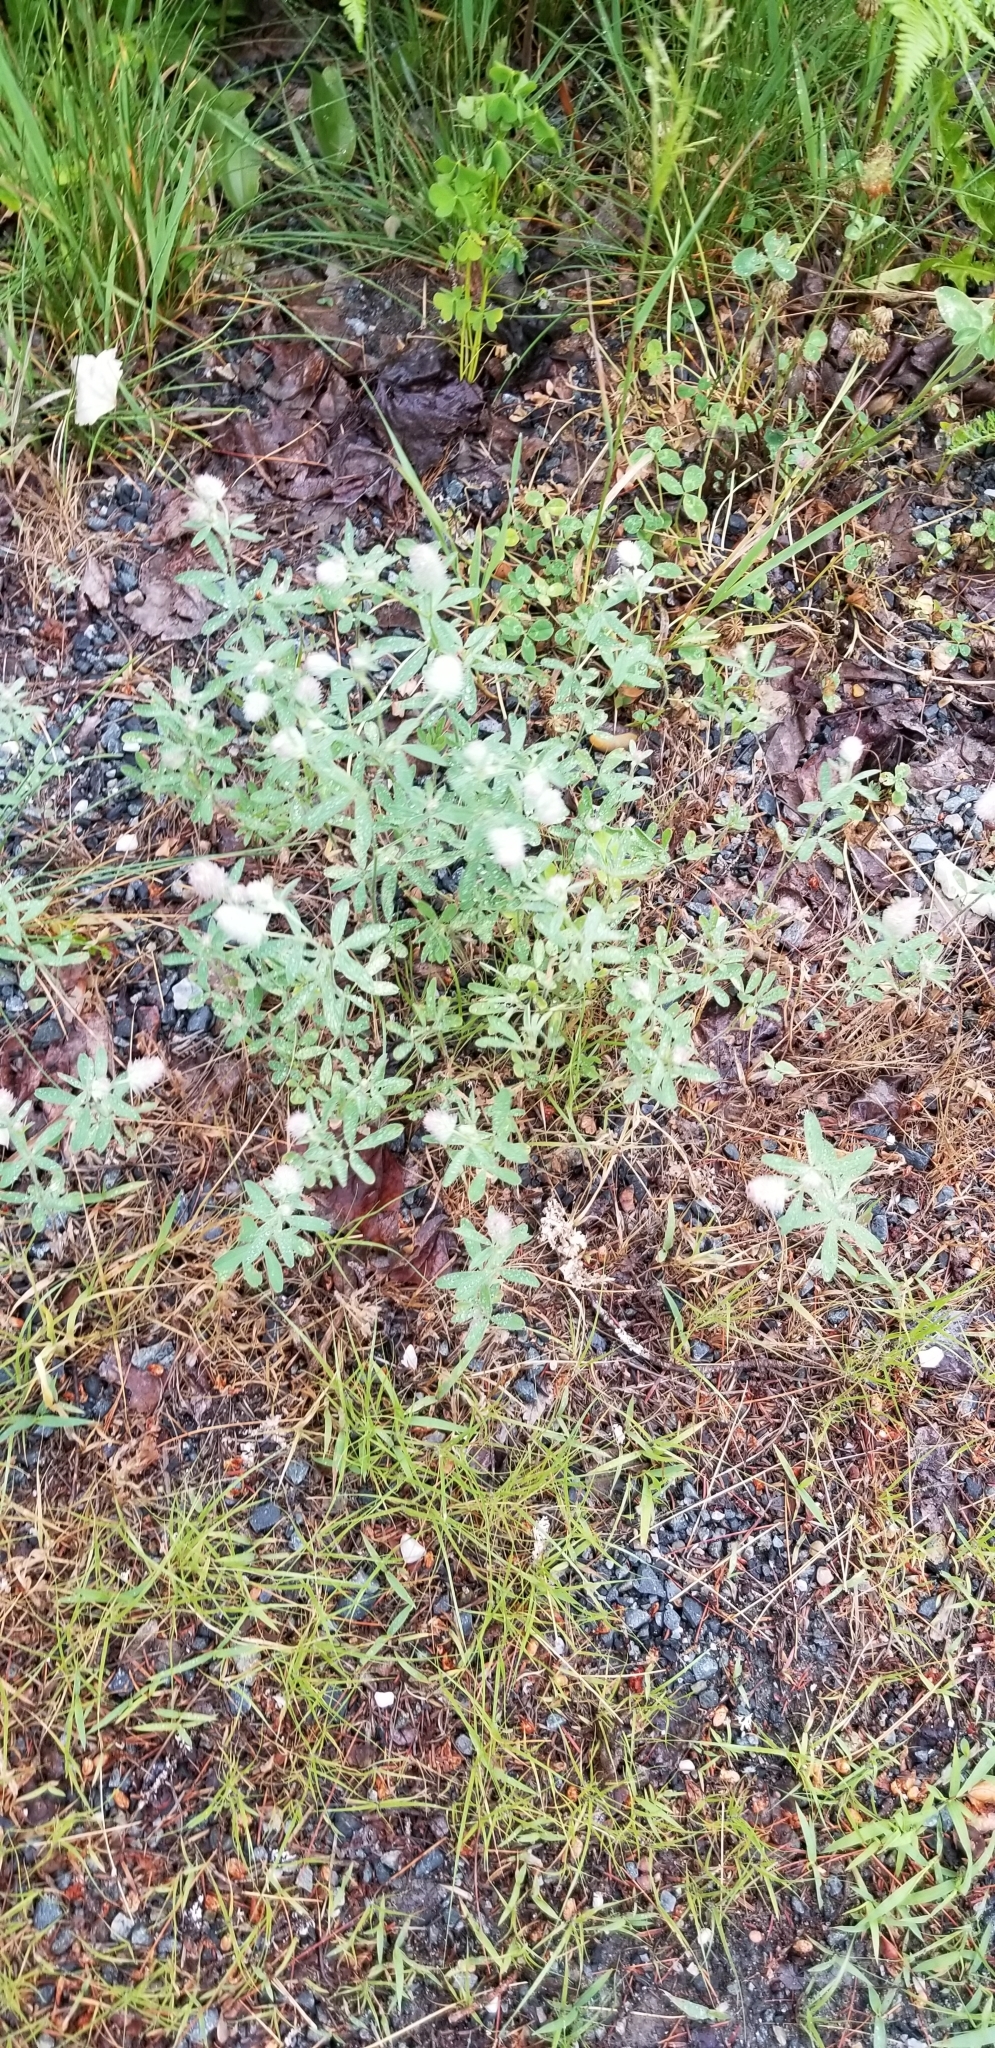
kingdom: Plantae
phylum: Tracheophyta
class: Magnoliopsida
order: Fabales
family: Fabaceae
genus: Trifolium
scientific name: Trifolium arvense
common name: Hare's-foot clover
